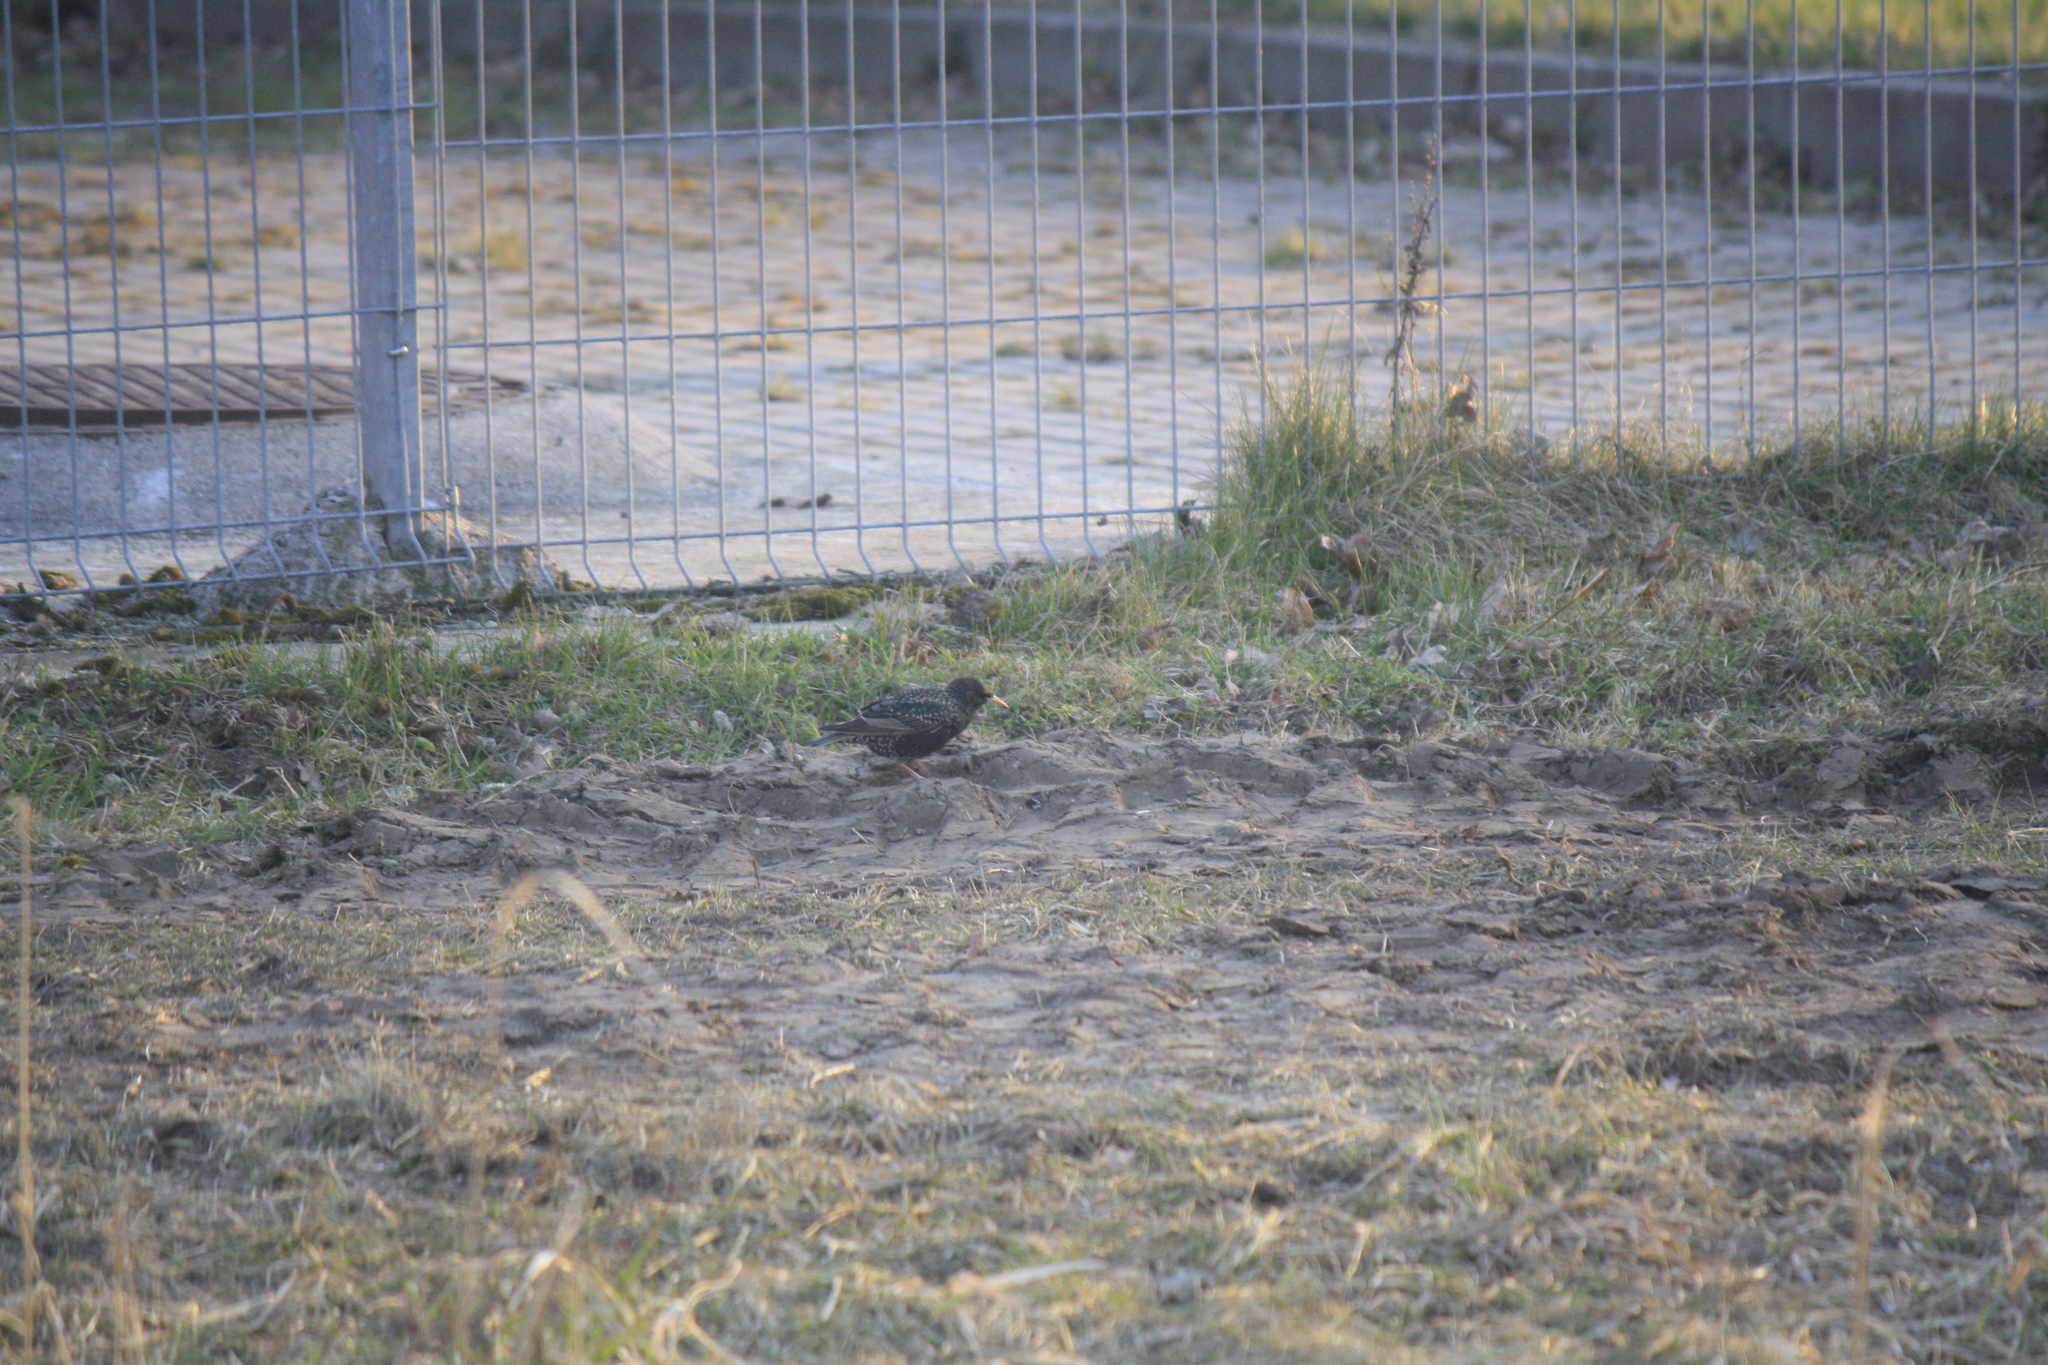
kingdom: Animalia
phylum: Chordata
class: Aves
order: Passeriformes
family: Sturnidae
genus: Sturnus
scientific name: Sturnus vulgaris
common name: Common starling
